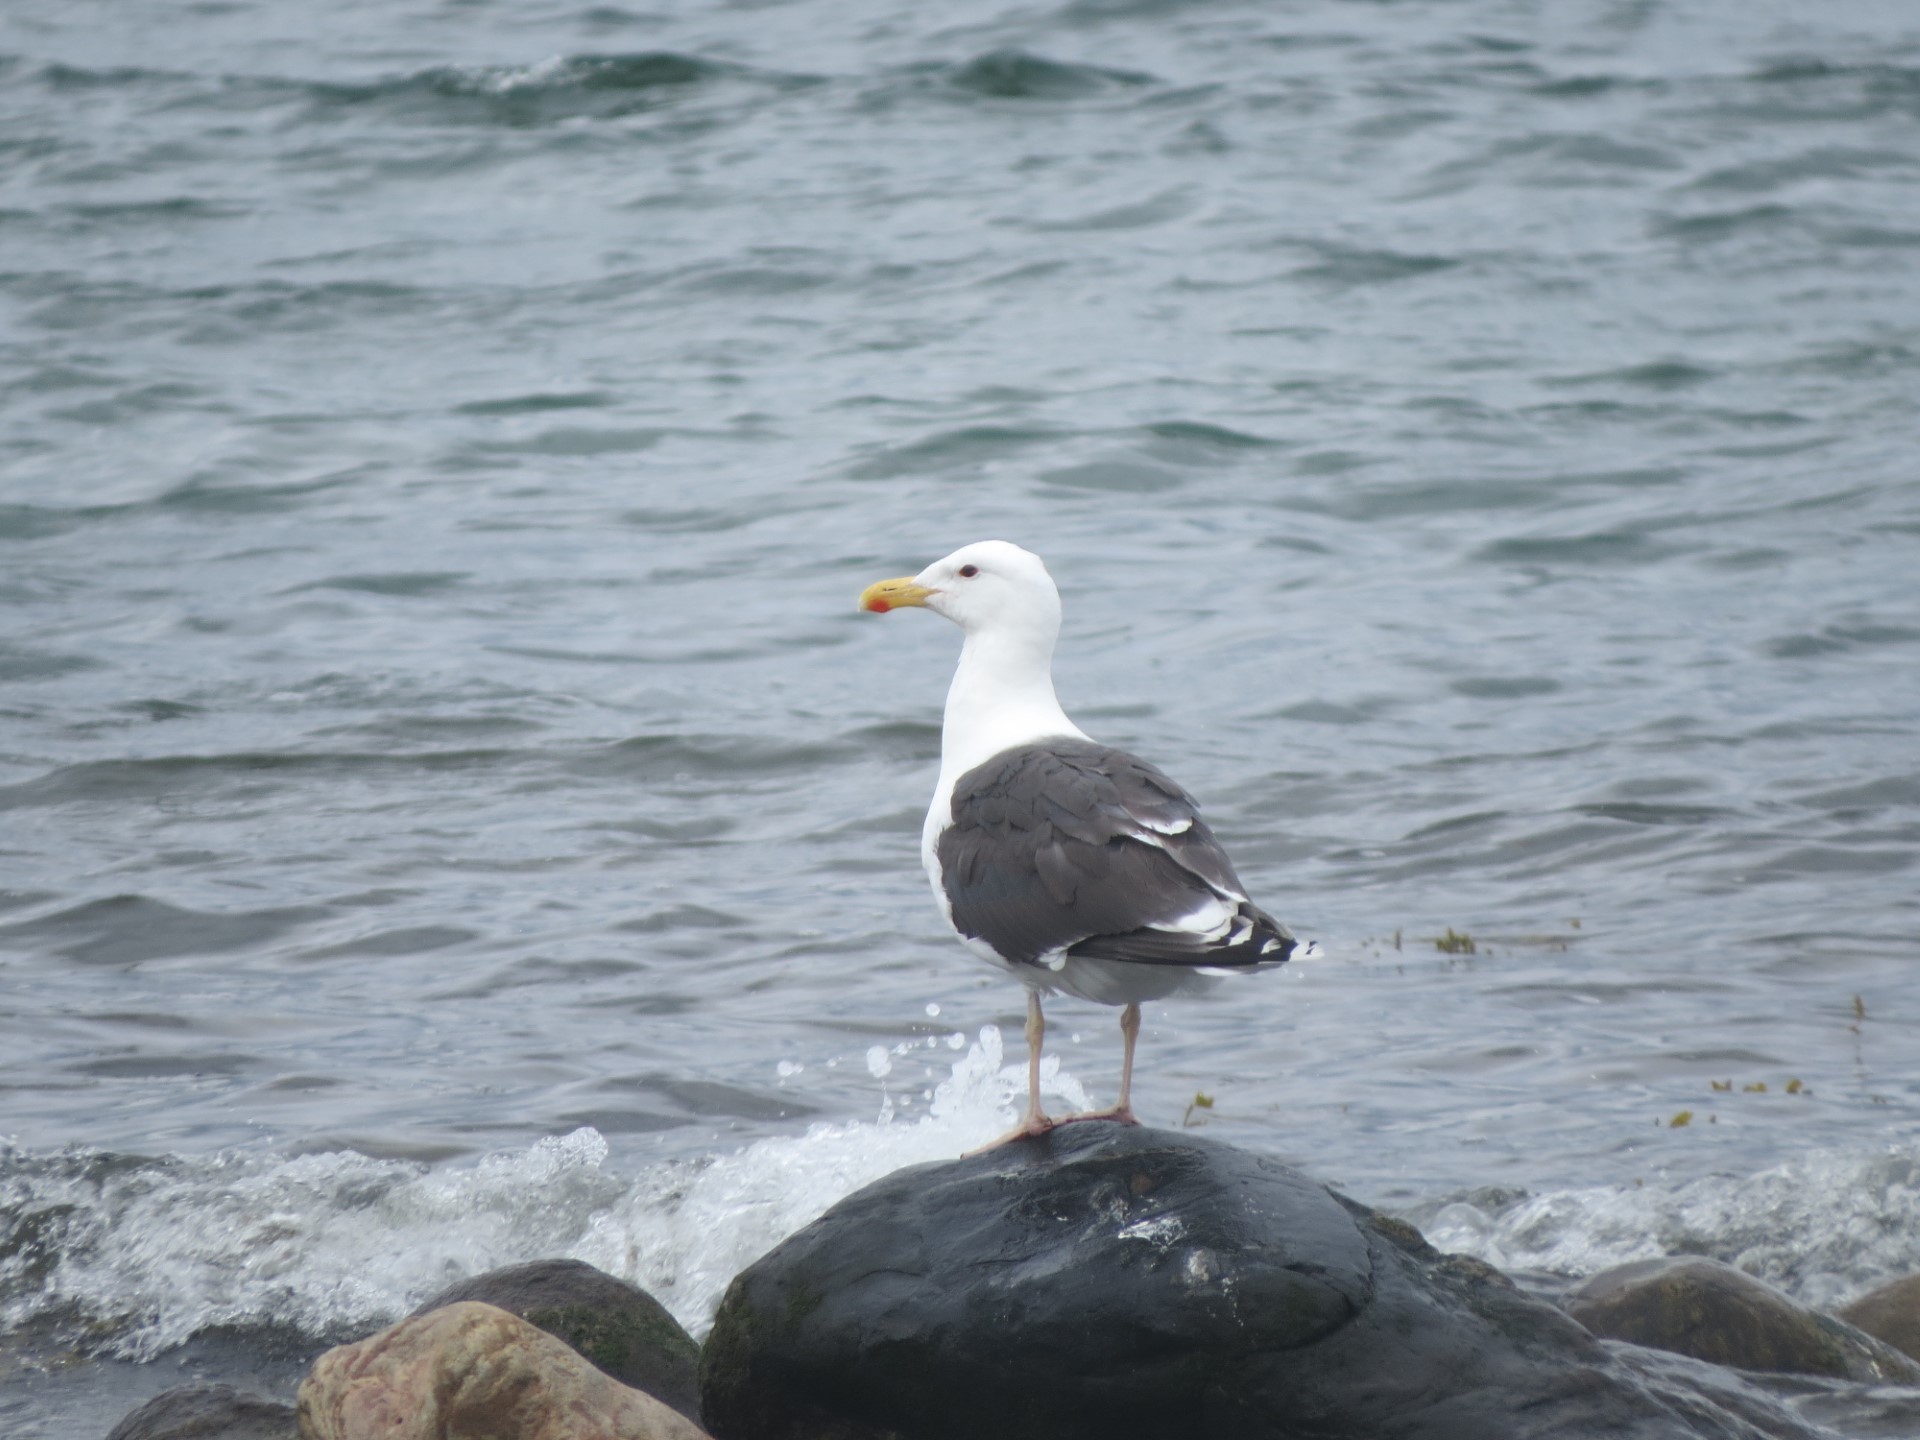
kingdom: Animalia
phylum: Chordata
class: Aves
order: Charadriiformes
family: Laridae
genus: Larus
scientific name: Larus marinus
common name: Great black-backed gull
